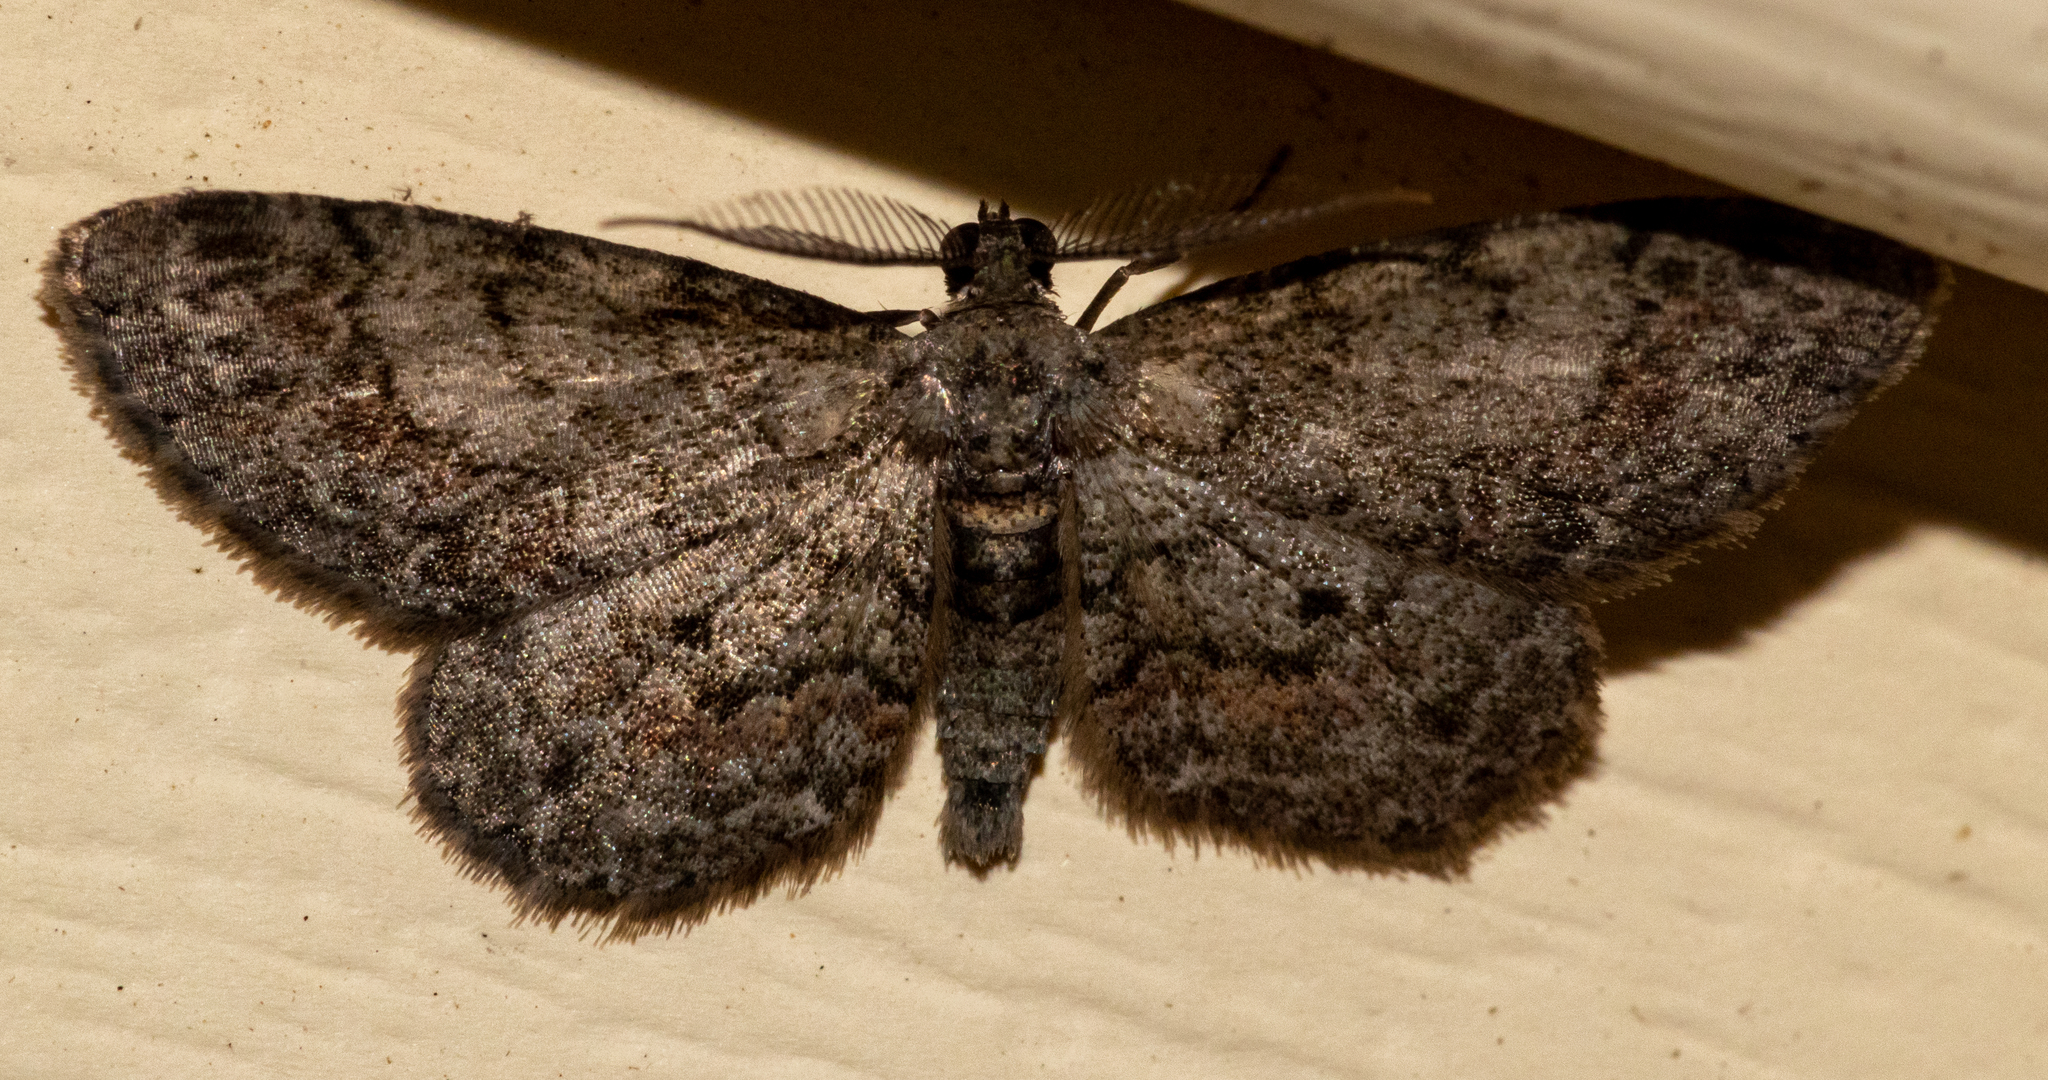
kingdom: Animalia
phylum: Arthropoda
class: Insecta
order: Lepidoptera
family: Geometridae
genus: Glenoides
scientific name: Glenoides texanaria
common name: Texas gray
